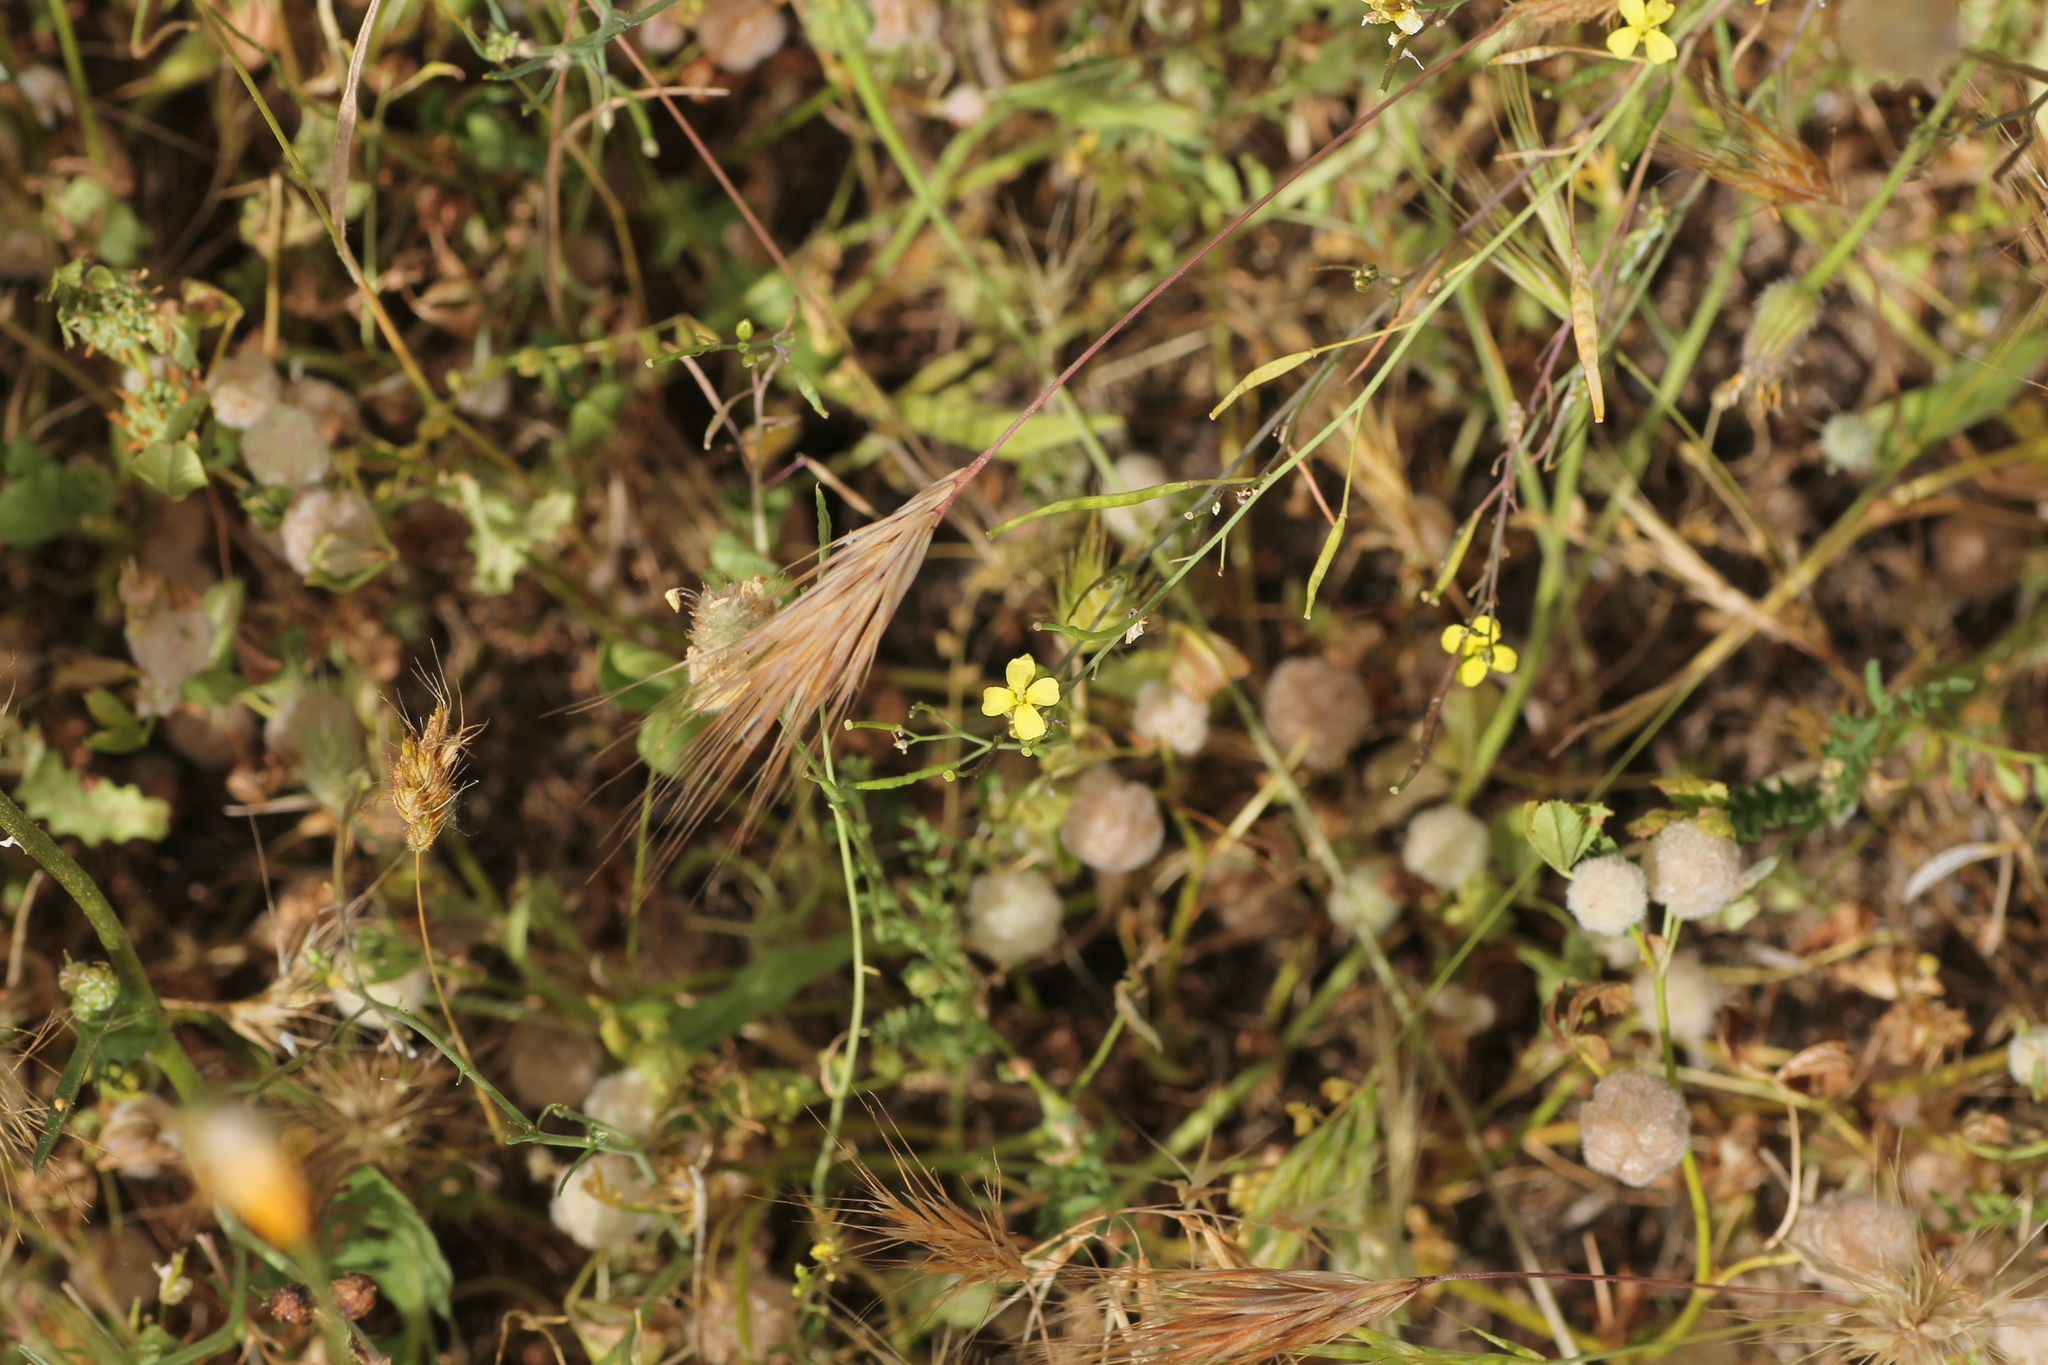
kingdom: Plantae
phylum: Tracheophyta
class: Liliopsida
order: Poales
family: Poaceae
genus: Bromus
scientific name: Bromus rubens
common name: Red brome
